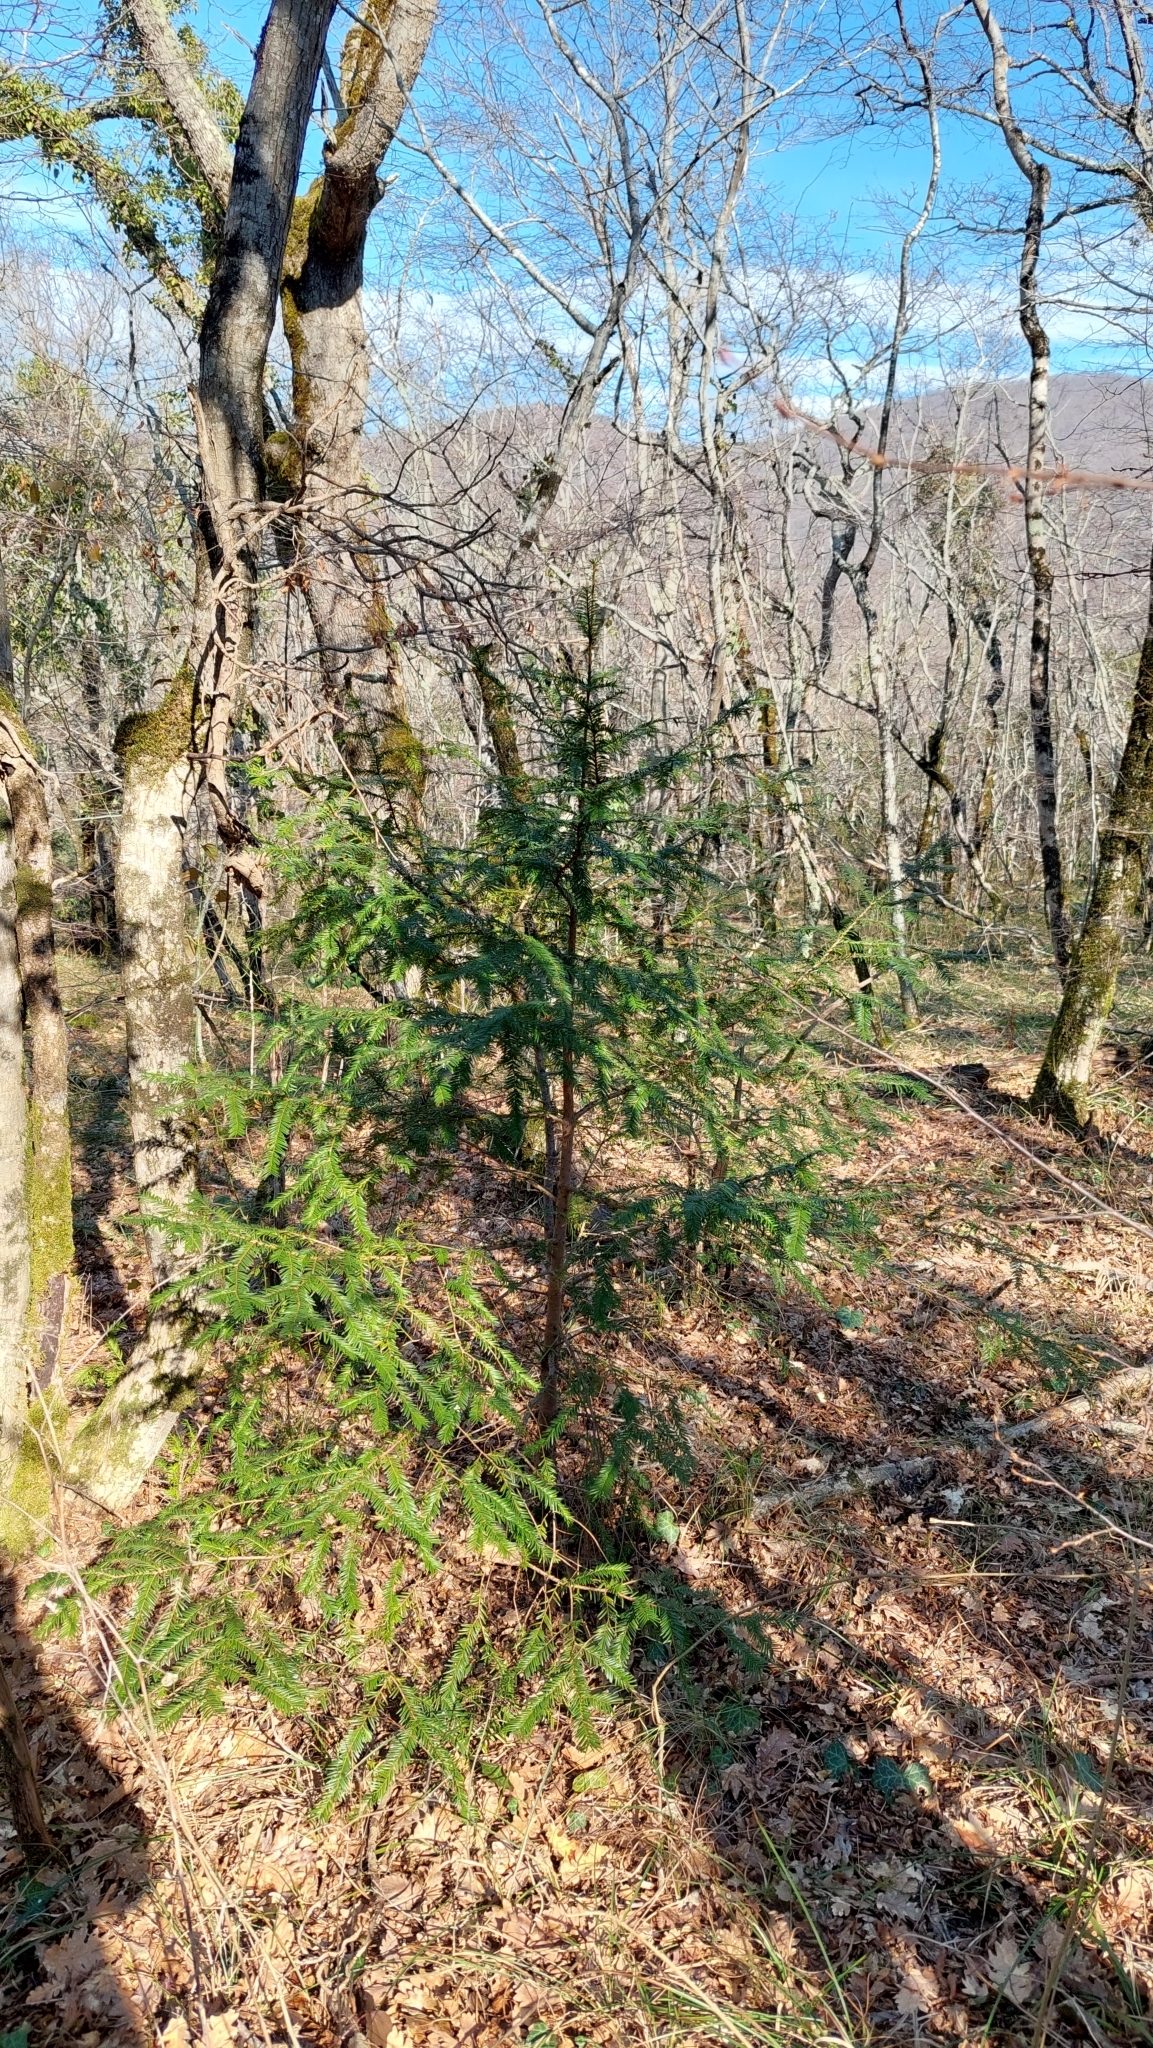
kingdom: Plantae
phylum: Tracheophyta
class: Pinopsida
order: Pinales
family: Taxaceae
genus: Taxus
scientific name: Taxus baccata
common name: Yew
